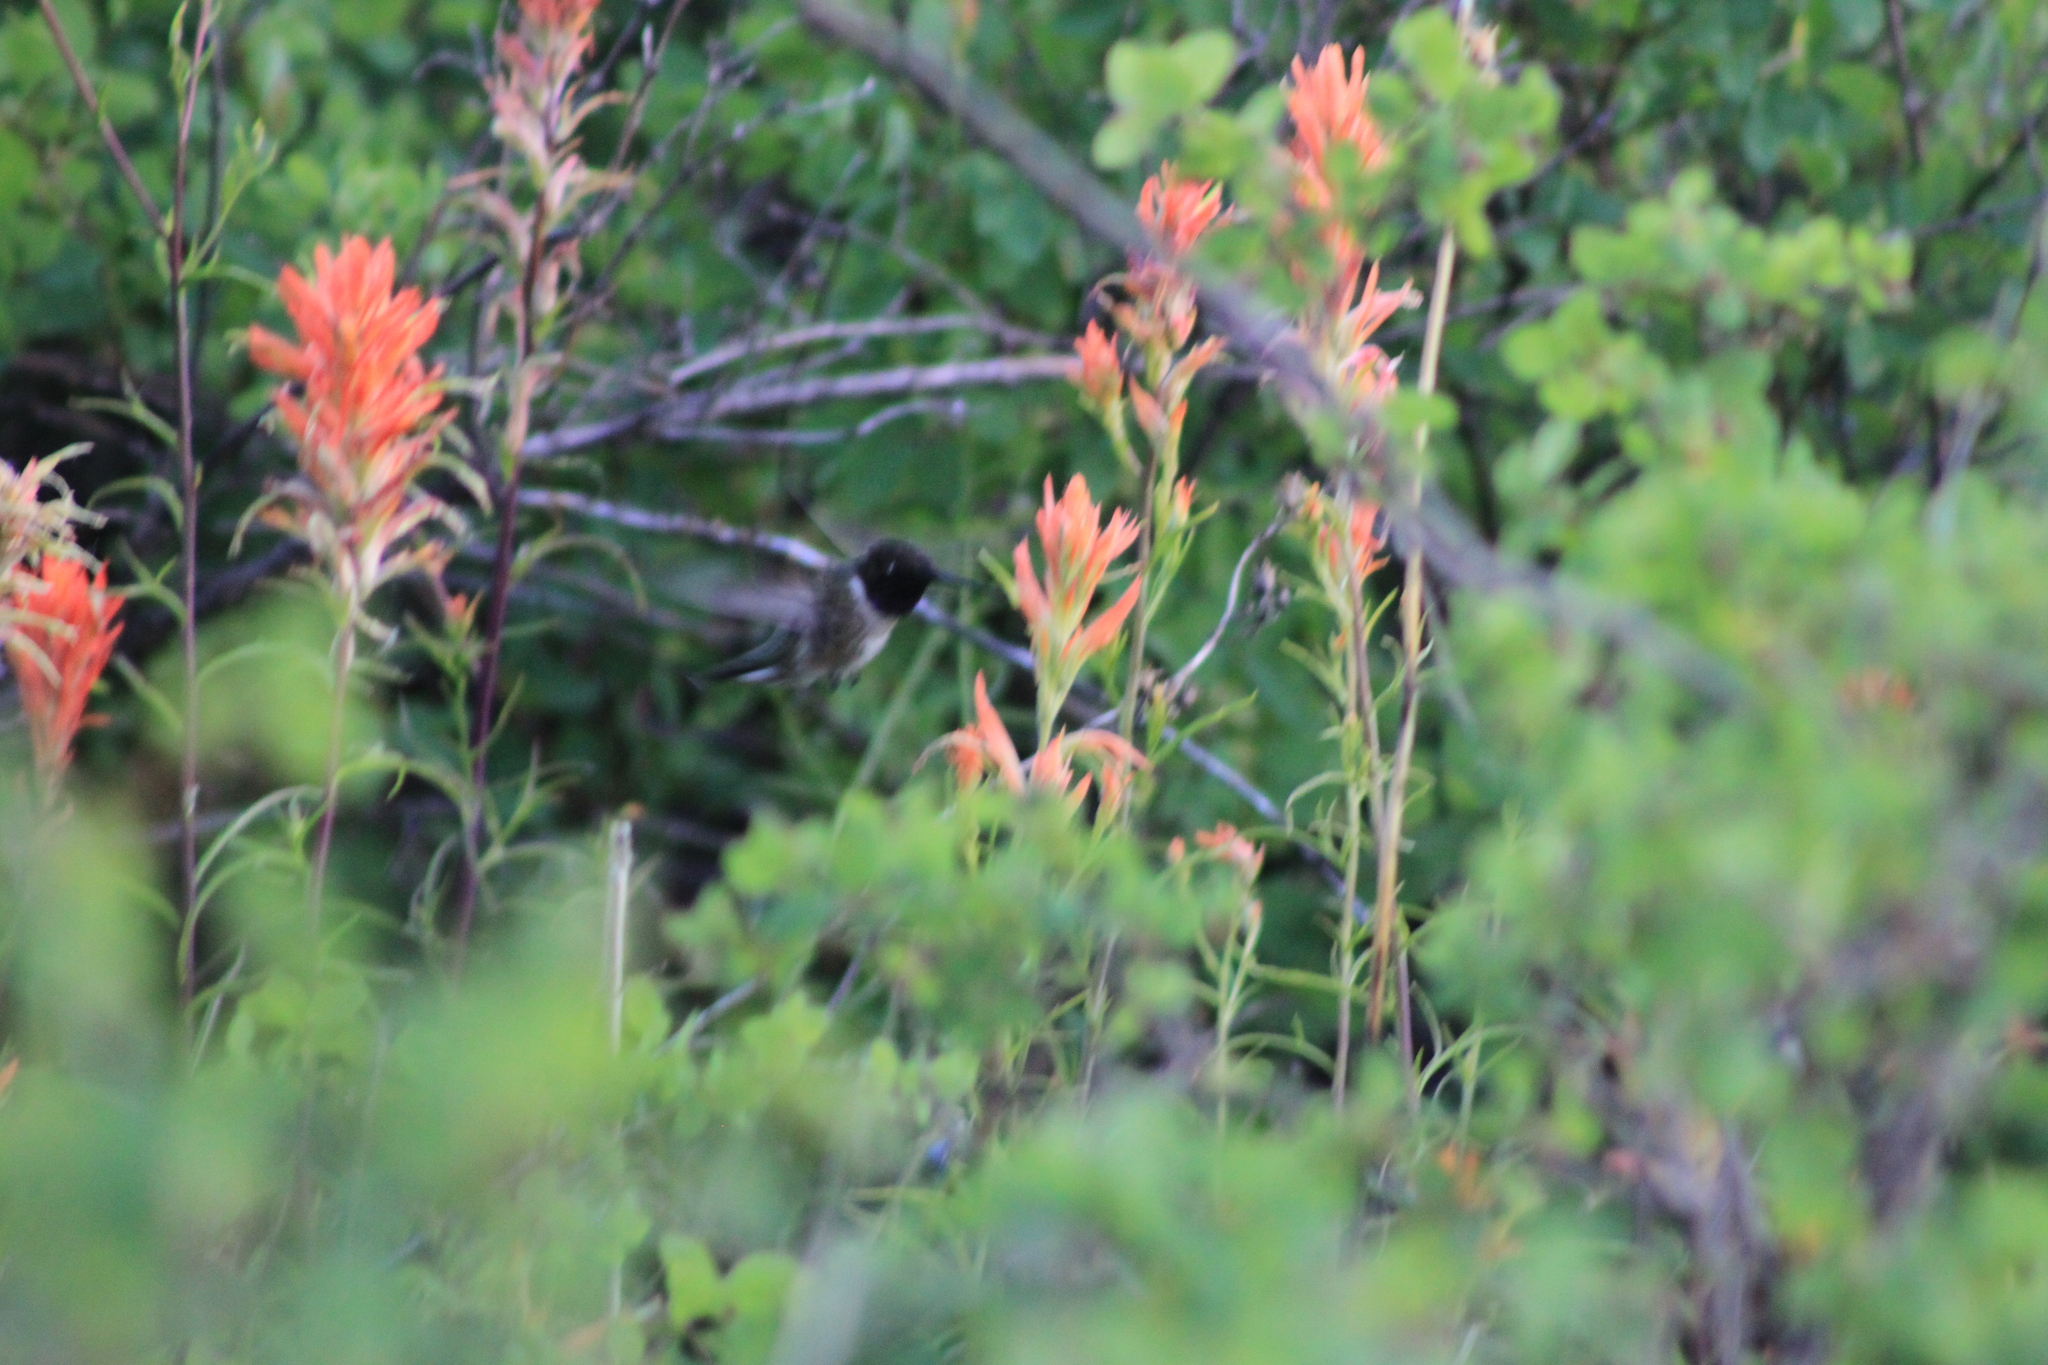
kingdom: Animalia
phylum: Chordata
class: Aves
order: Apodiformes
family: Trochilidae
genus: Archilochus
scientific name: Archilochus alexandri
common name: Black-chinned hummingbird
